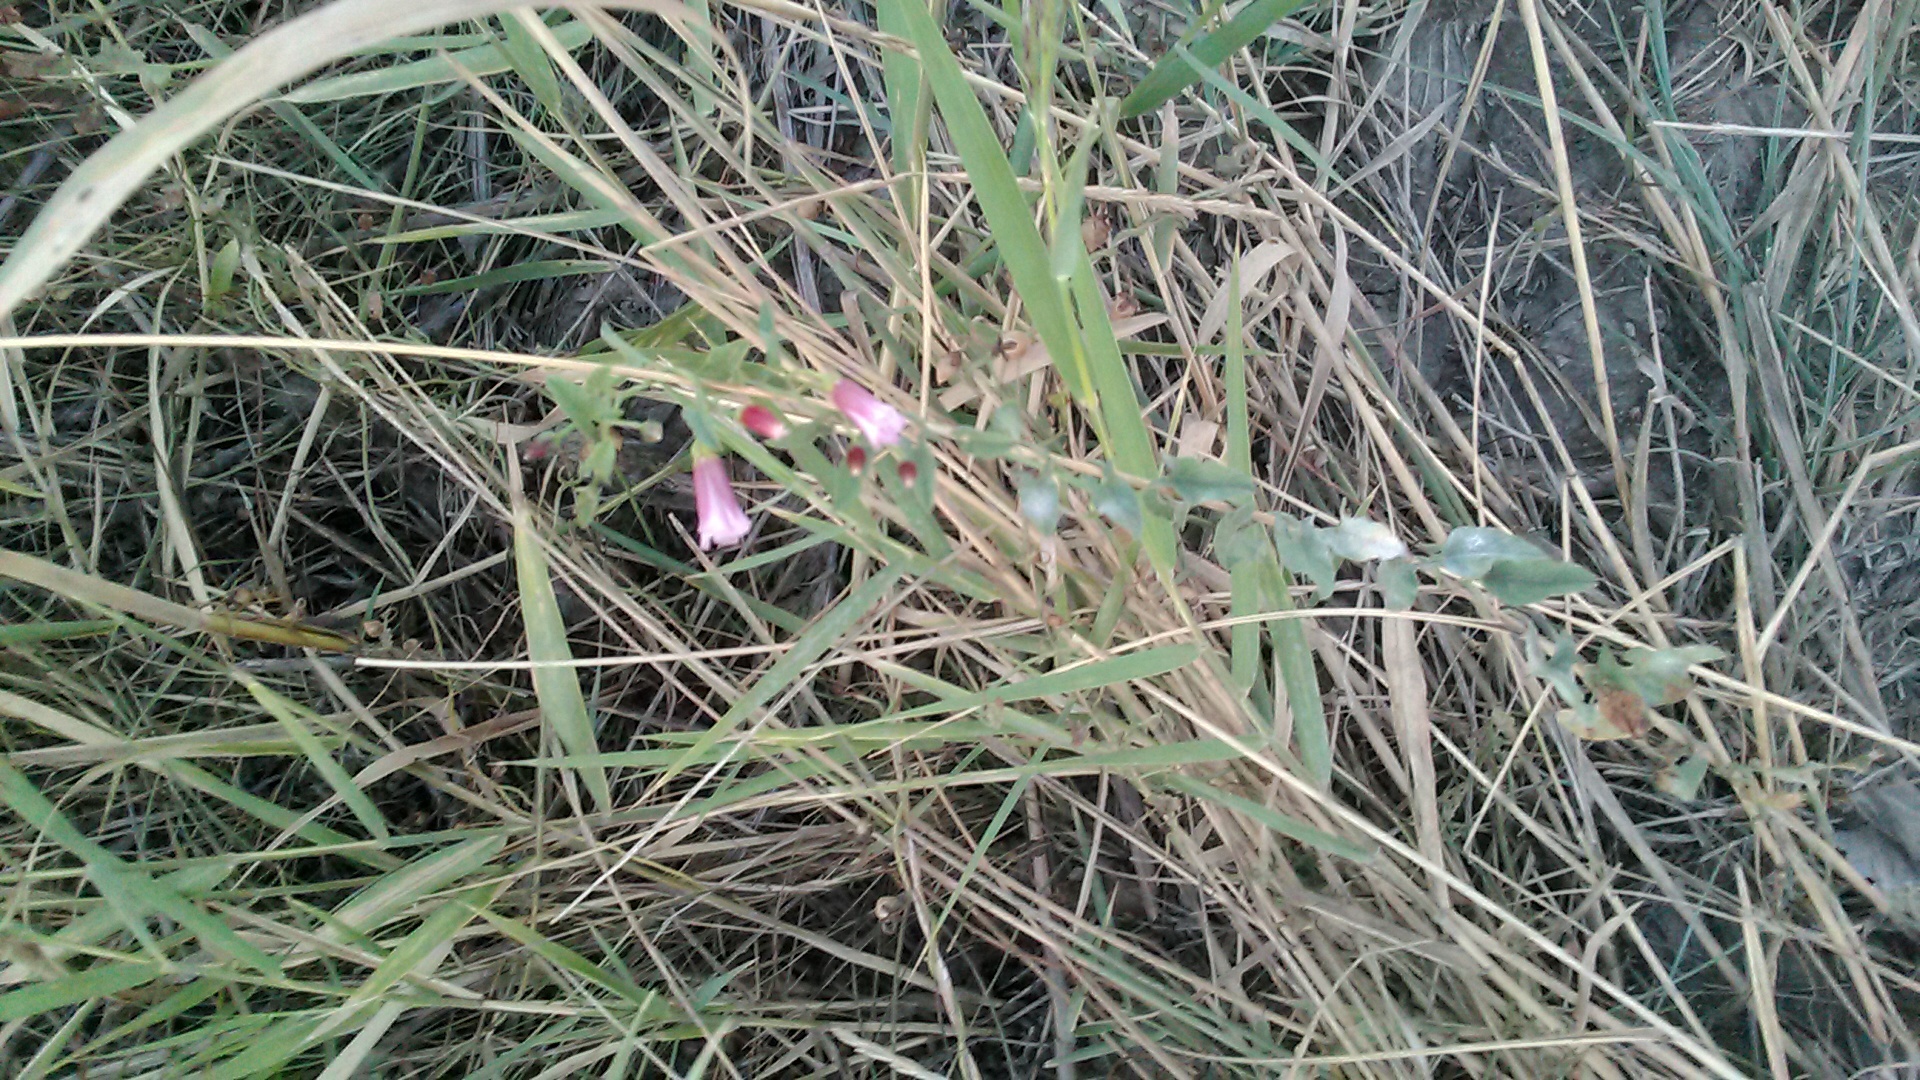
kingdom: Plantae
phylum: Tracheophyta
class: Magnoliopsida
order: Solanales
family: Convolvulaceae
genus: Convolvulus
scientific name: Convolvulus arvensis
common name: Field bindweed
